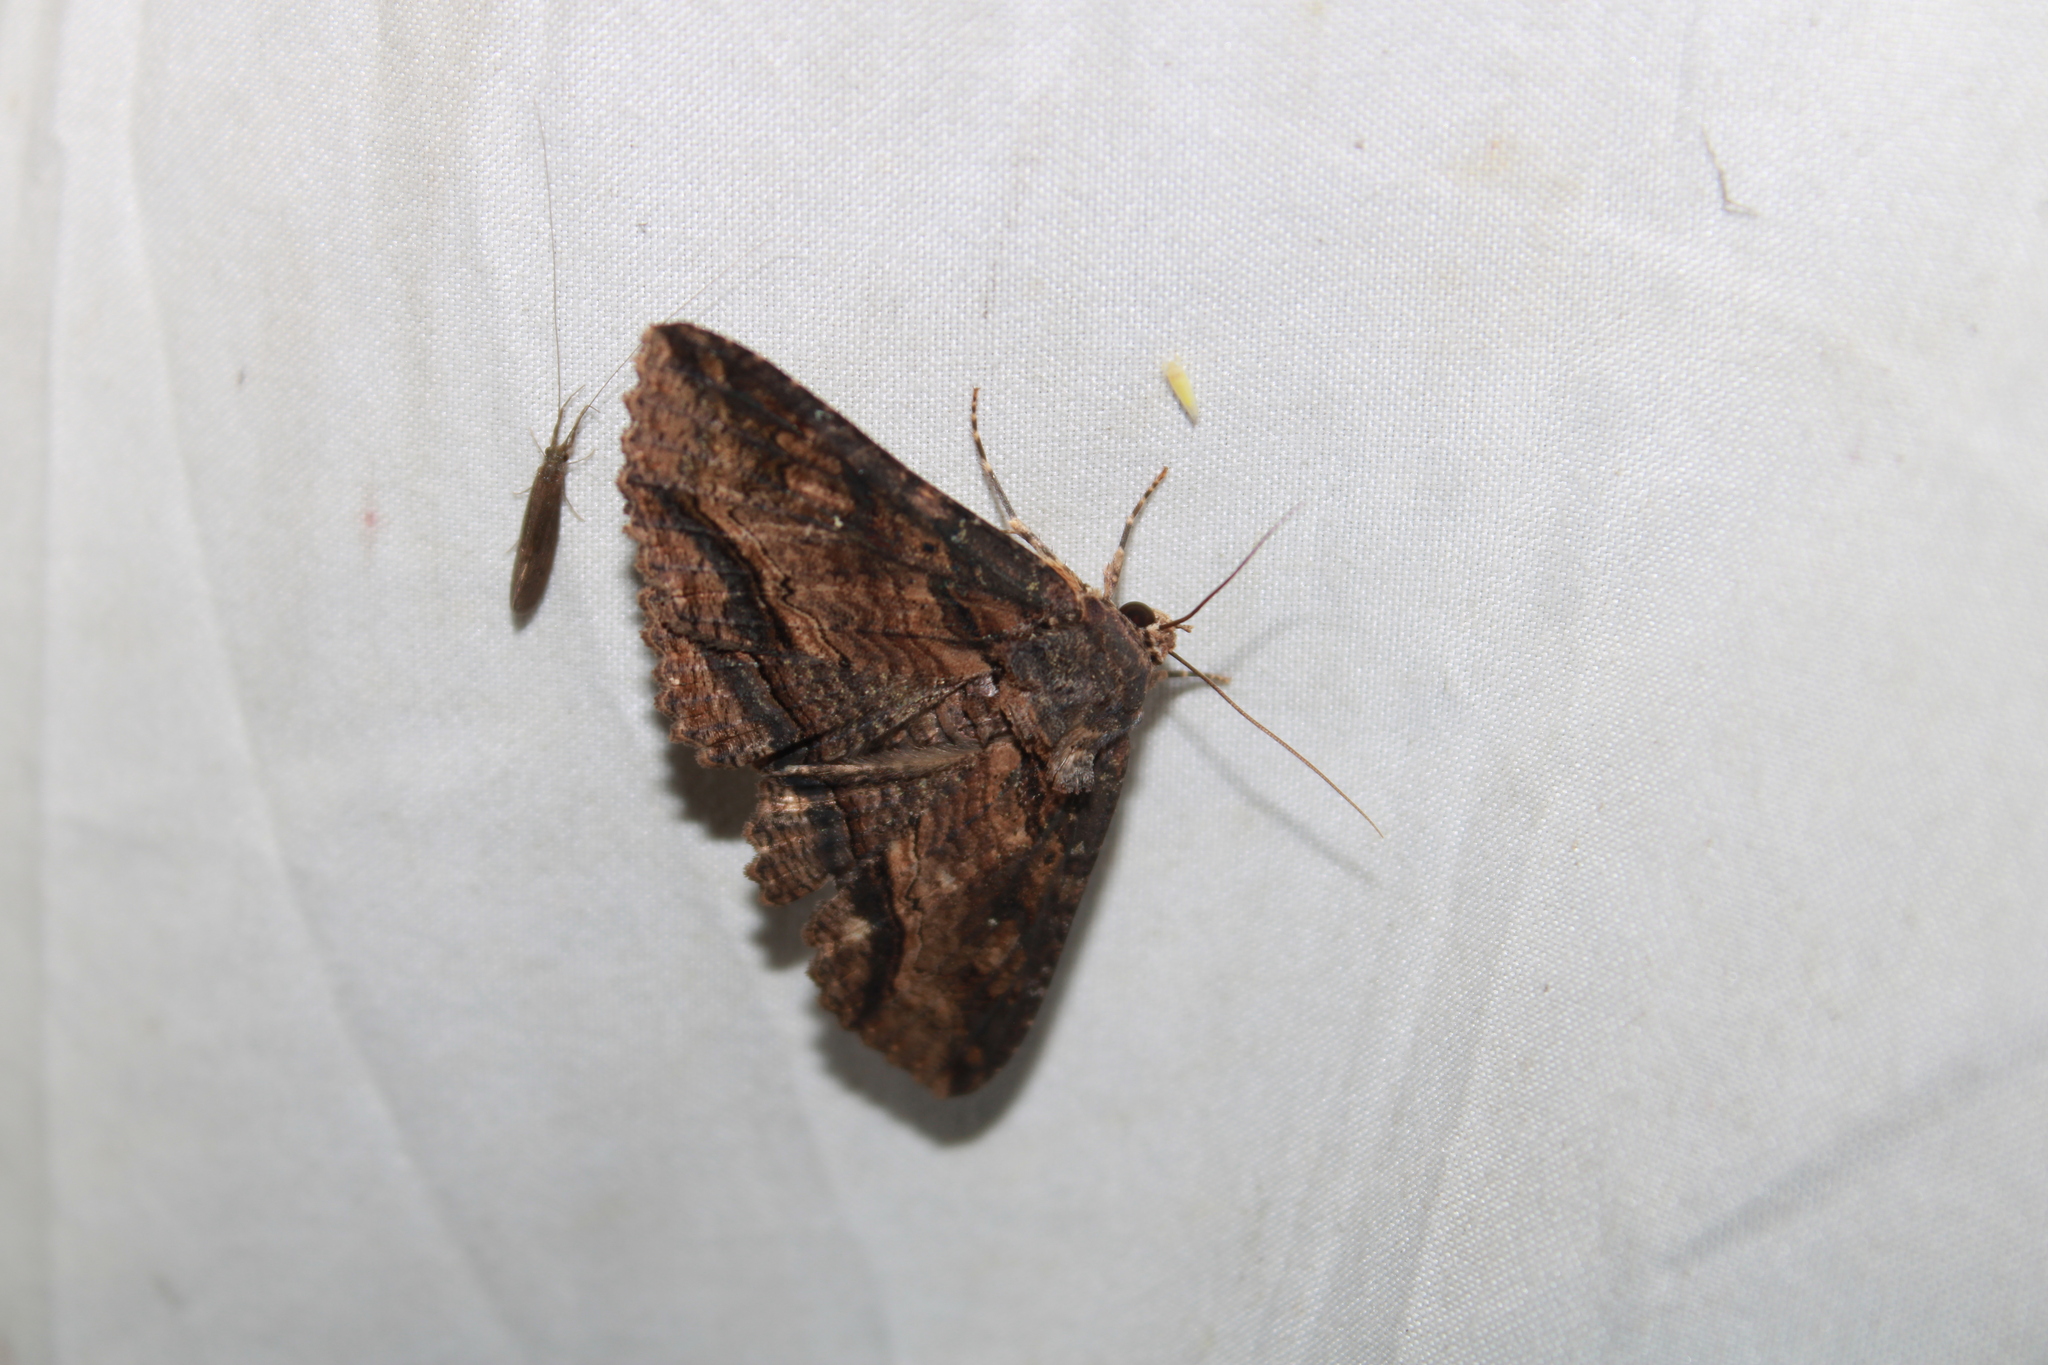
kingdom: Animalia
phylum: Arthropoda
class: Insecta
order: Lepidoptera
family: Erebidae
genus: Zale
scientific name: Zale lunata
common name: Lunate zale moth
